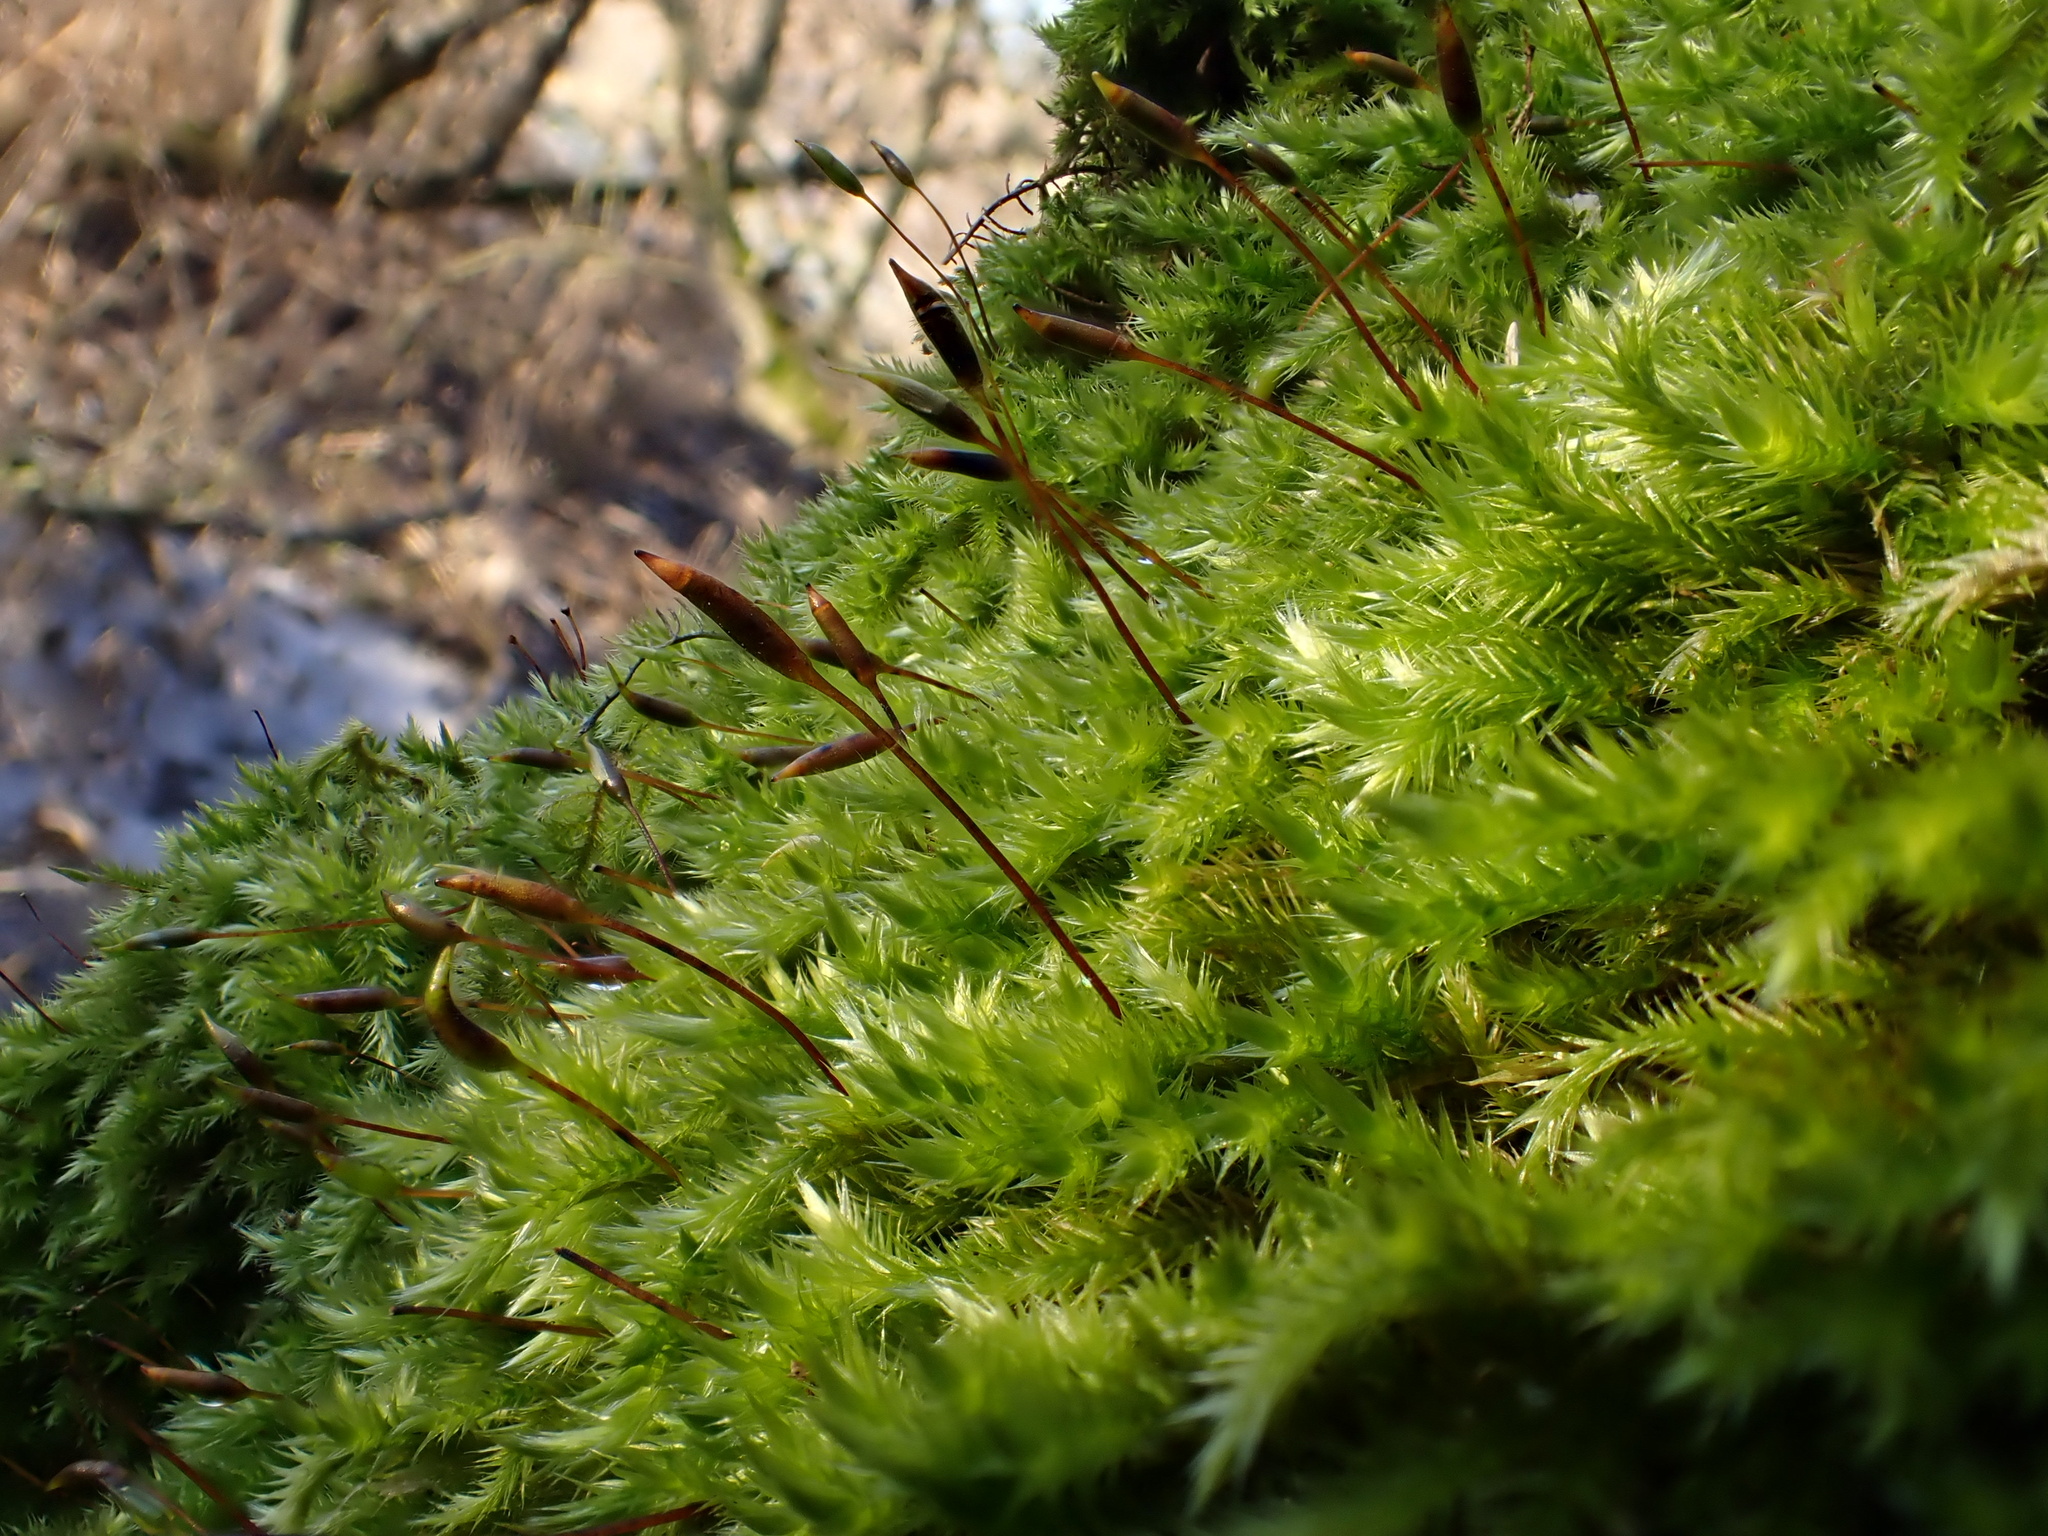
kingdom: Plantae
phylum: Bryophyta
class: Bryopsida
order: Hypnales
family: Pylaisiaceae
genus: Pylaisia
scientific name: Pylaisia polyantha
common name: Many-flowered leskea
